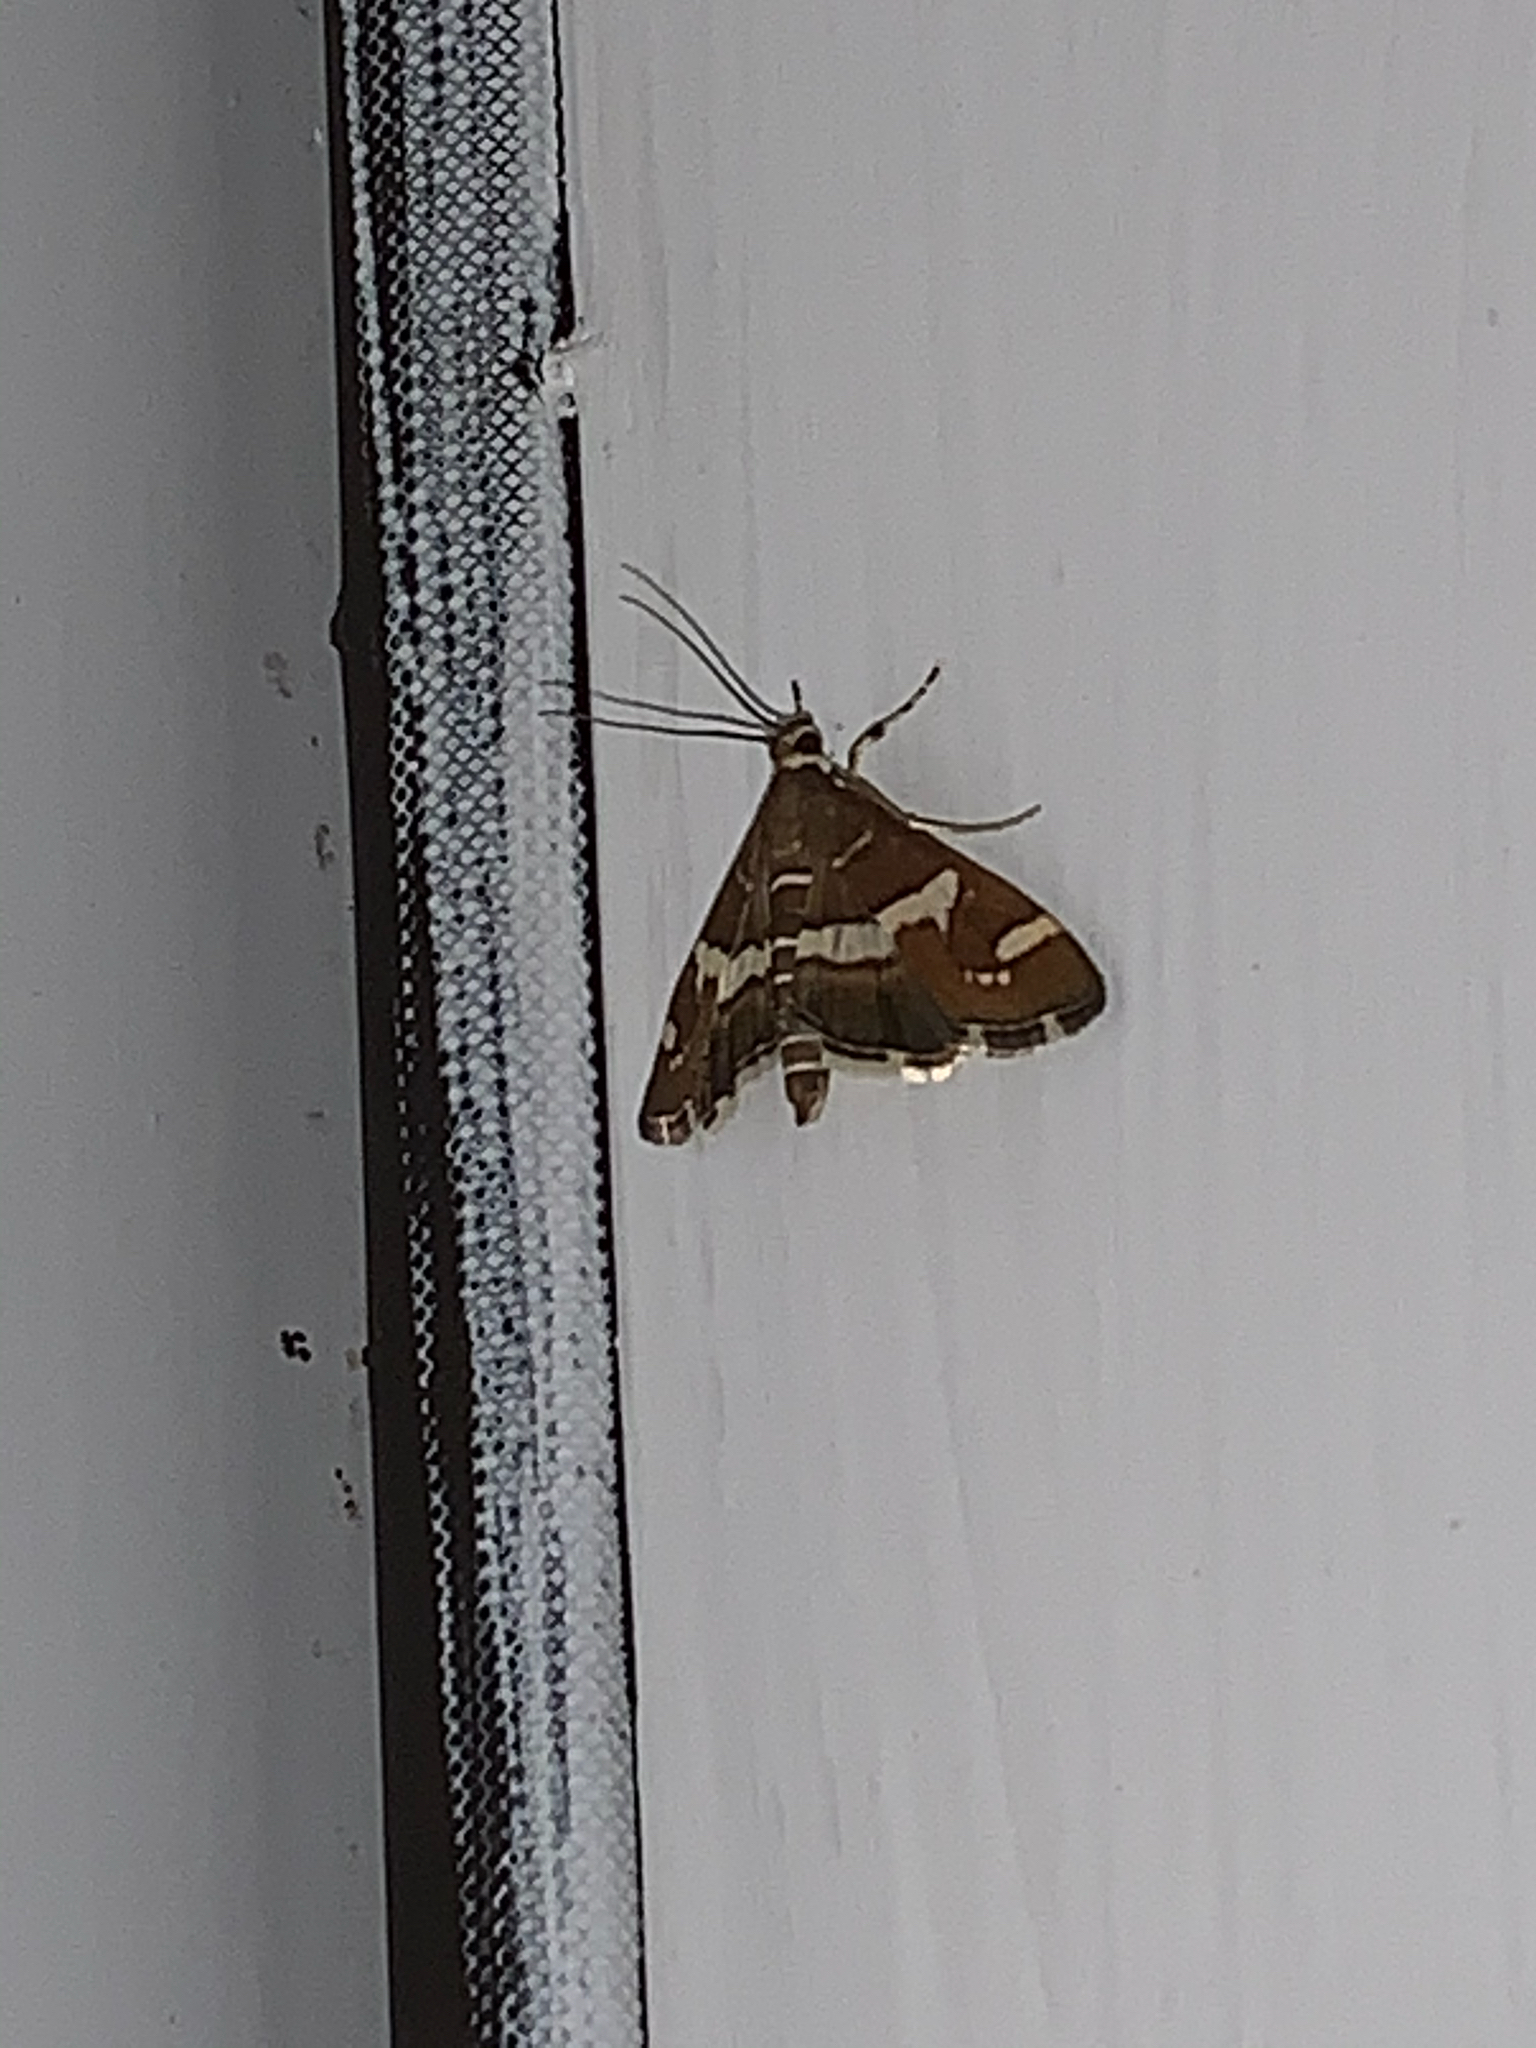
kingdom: Animalia
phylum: Arthropoda
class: Insecta
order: Lepidoptera
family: Crambidae
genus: Spoladea
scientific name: Spoladea recurvalis
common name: Beet webworm moth
